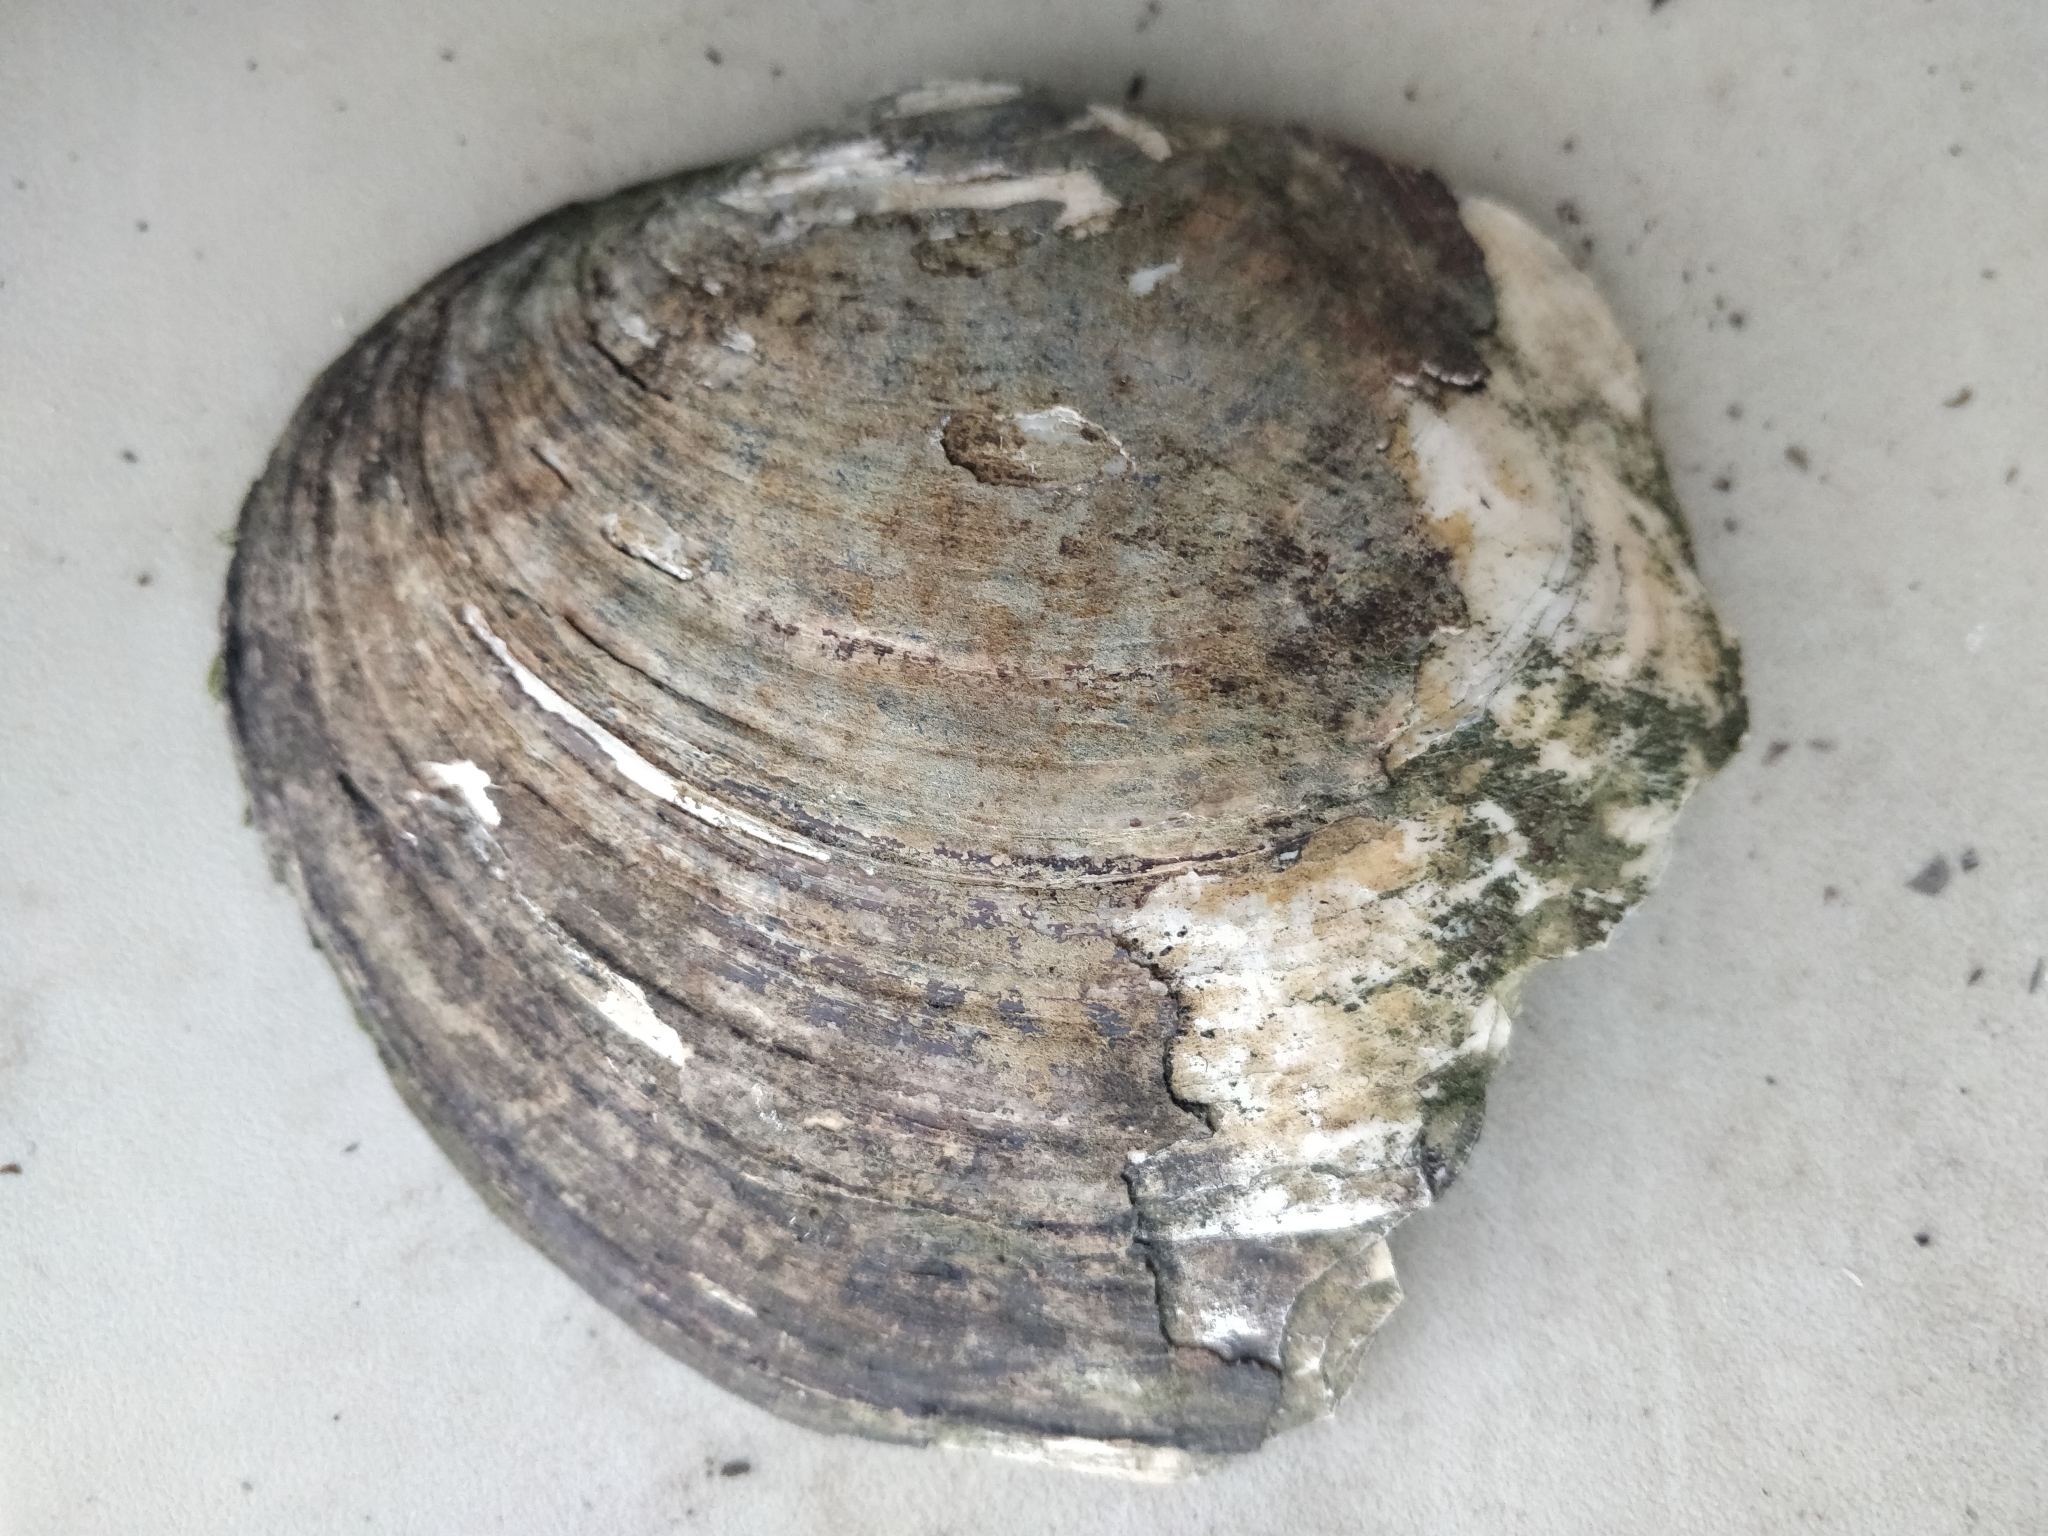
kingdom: Animalia
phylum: Mollusca
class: Bivalvia
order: Unionida
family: Unionidae
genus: Lasmigona
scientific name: Lasmigona complanata
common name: White heelsplitter
